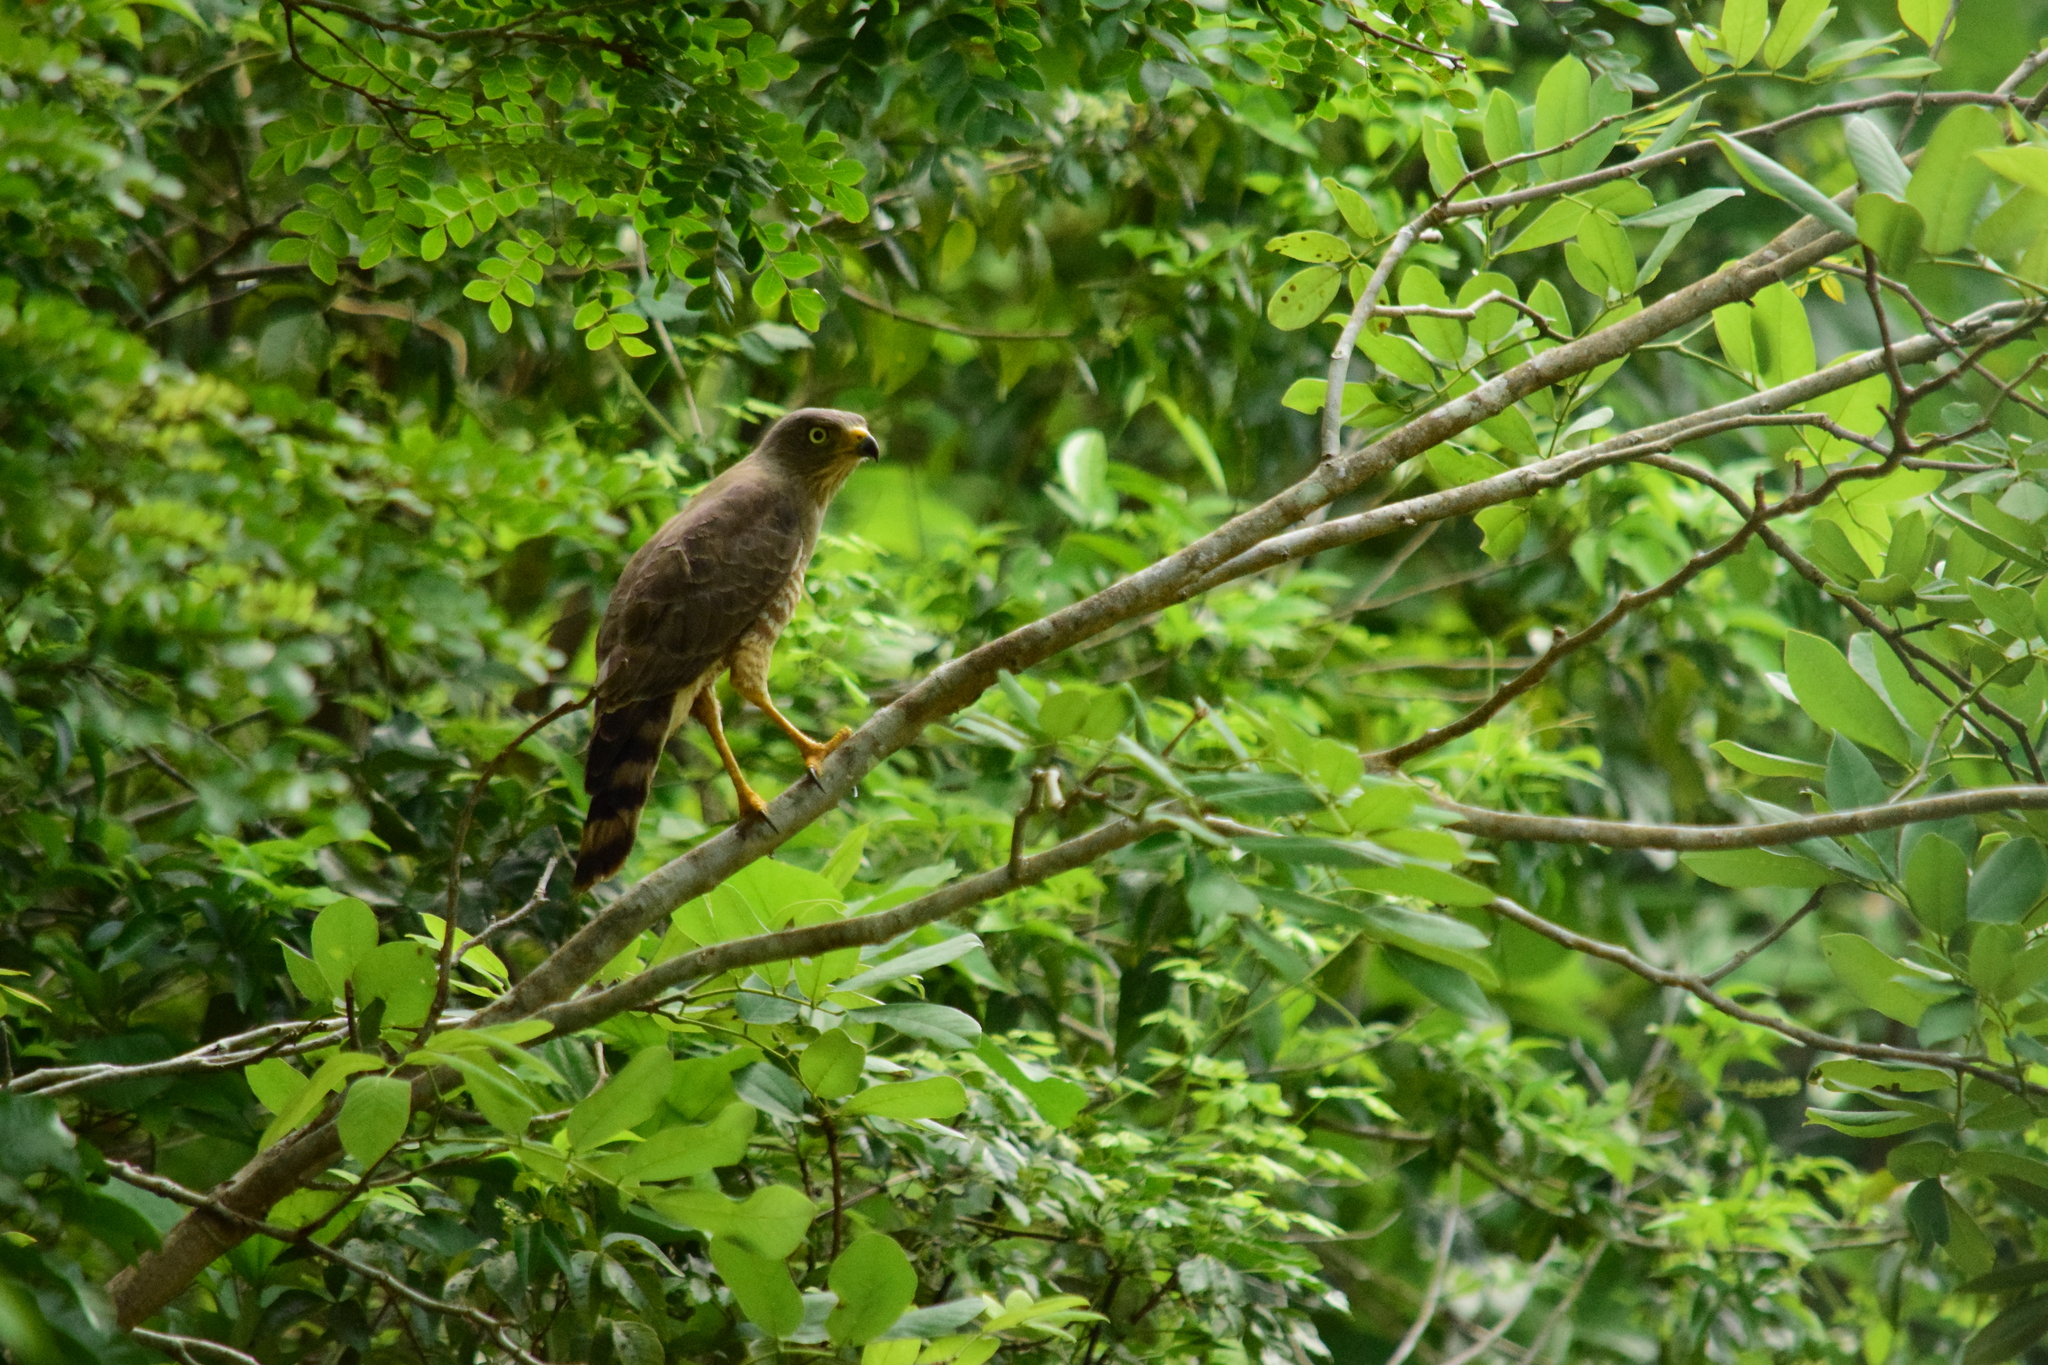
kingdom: Animalia
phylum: Chordata
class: Aves
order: Accipitriformes
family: Accipitridae
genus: Rupornis
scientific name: Rupornis magnirostris
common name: Roadside hawk
